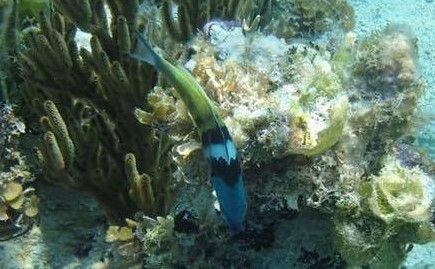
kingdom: Animalia
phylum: Chordata
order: Perciformes
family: Labridae
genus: Thalassoma
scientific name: Thalassoma bifasciatum
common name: Bluehead wrasse
